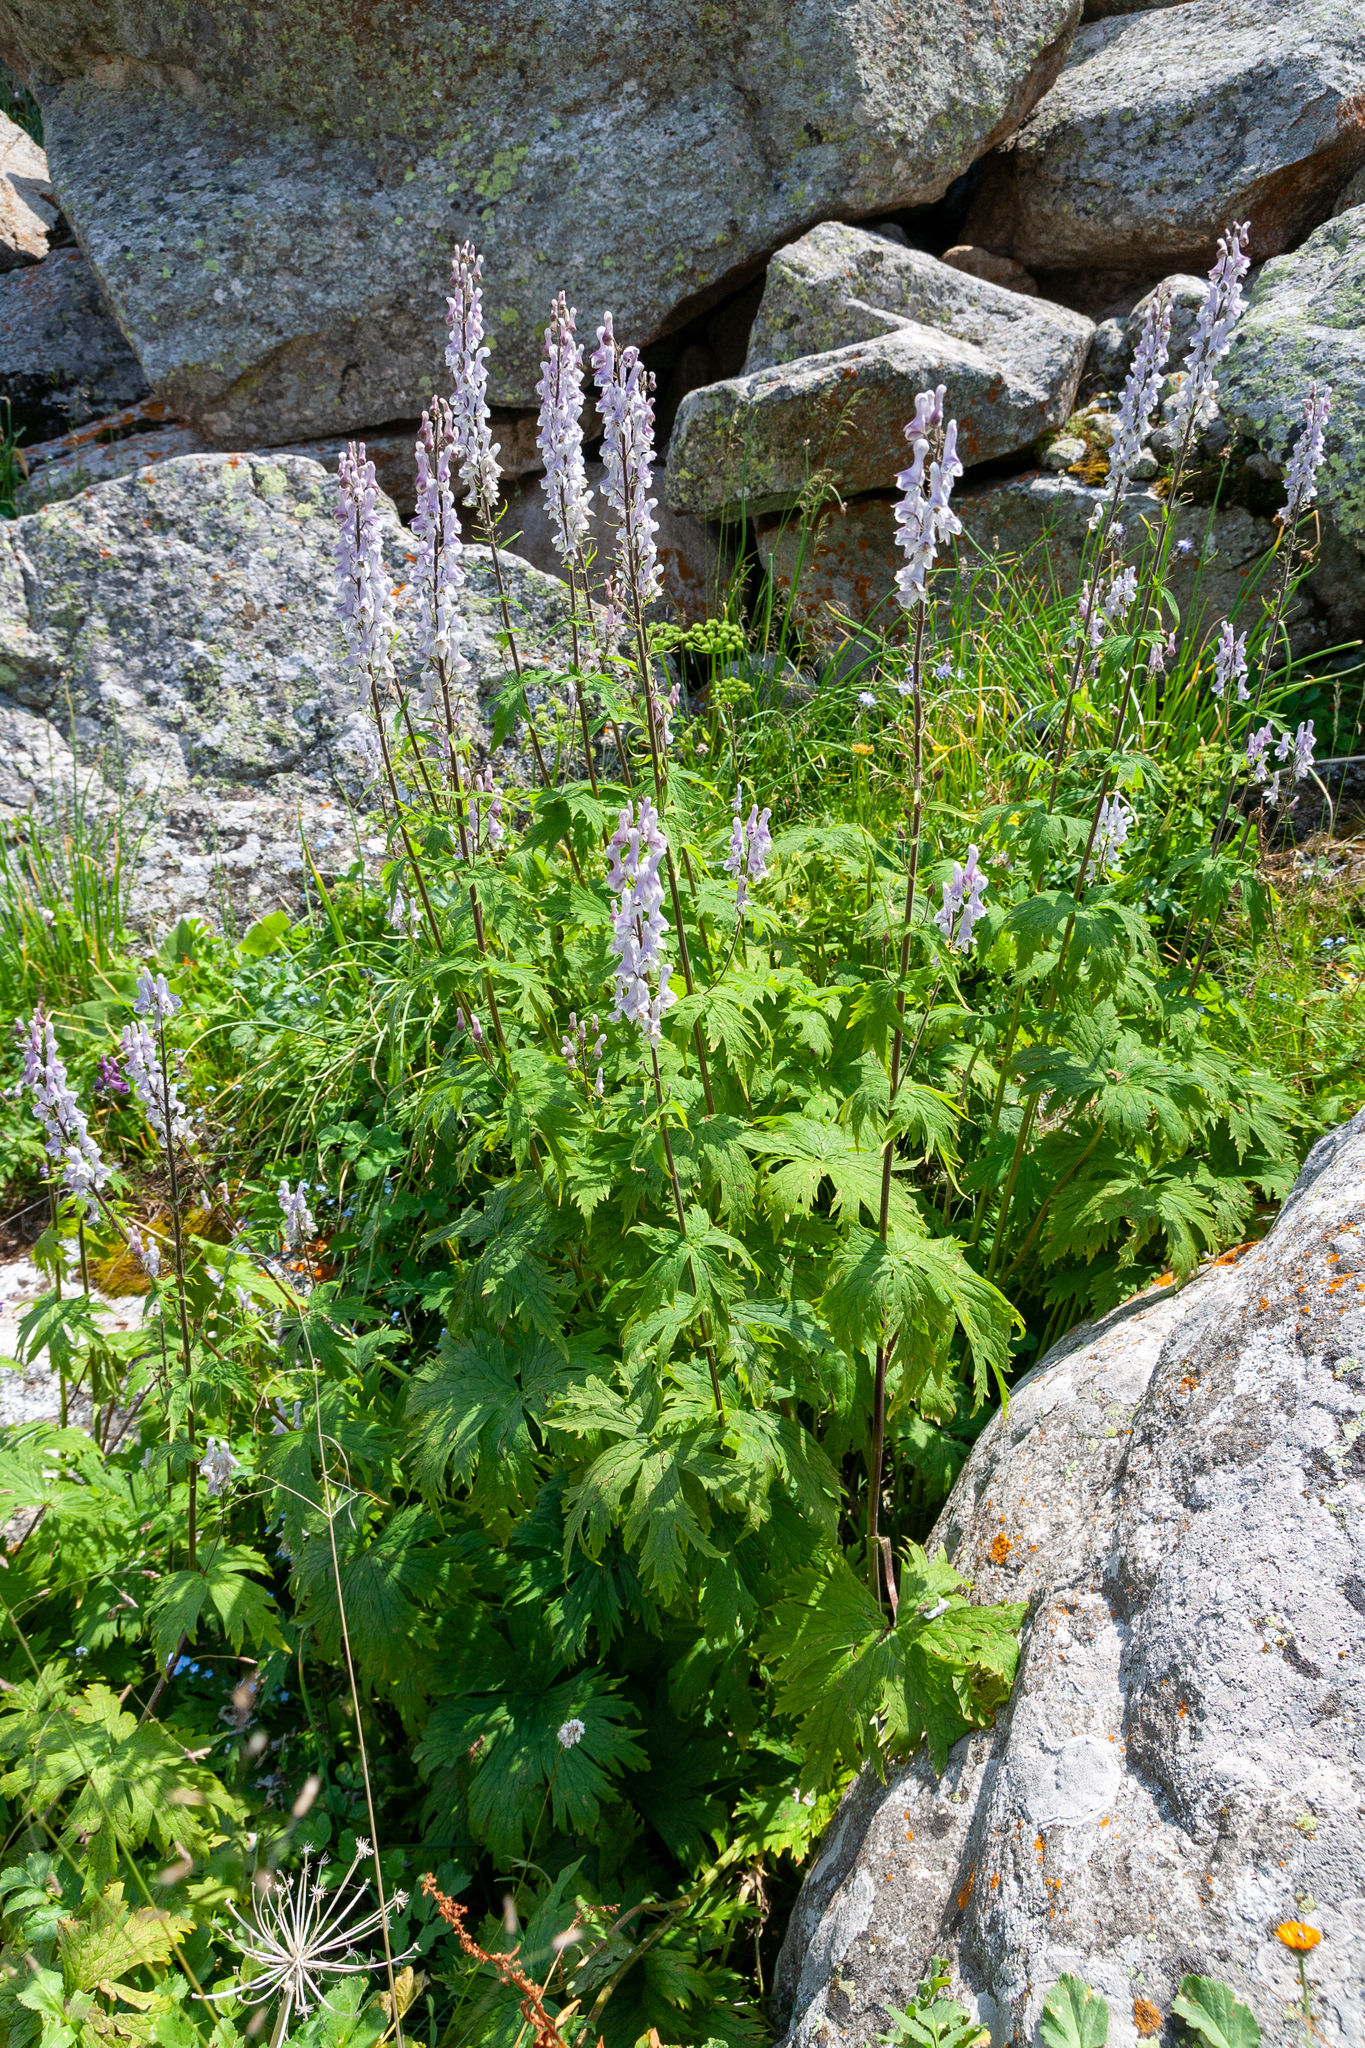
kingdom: Plantae
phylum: Tracheophyta
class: Magnoliopsida
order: Ranunculales
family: Ranunculaceae
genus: Aconitum
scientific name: Aconitum leucostomum
